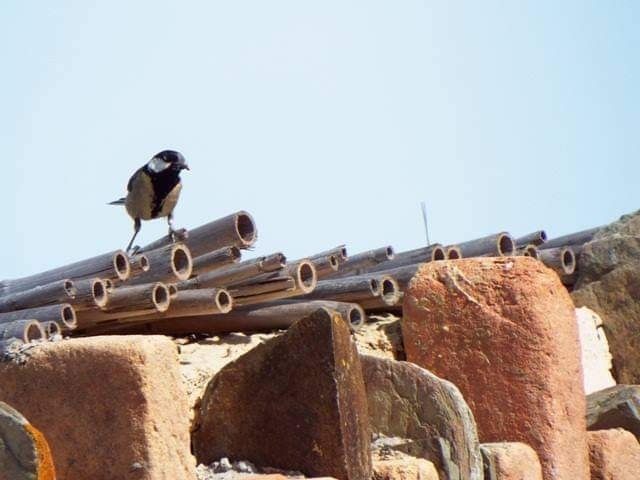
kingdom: Animalia
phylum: Chordata
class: Aves
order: Passeriformes
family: Paridae
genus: Parus
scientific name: Parus major
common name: Great tit
